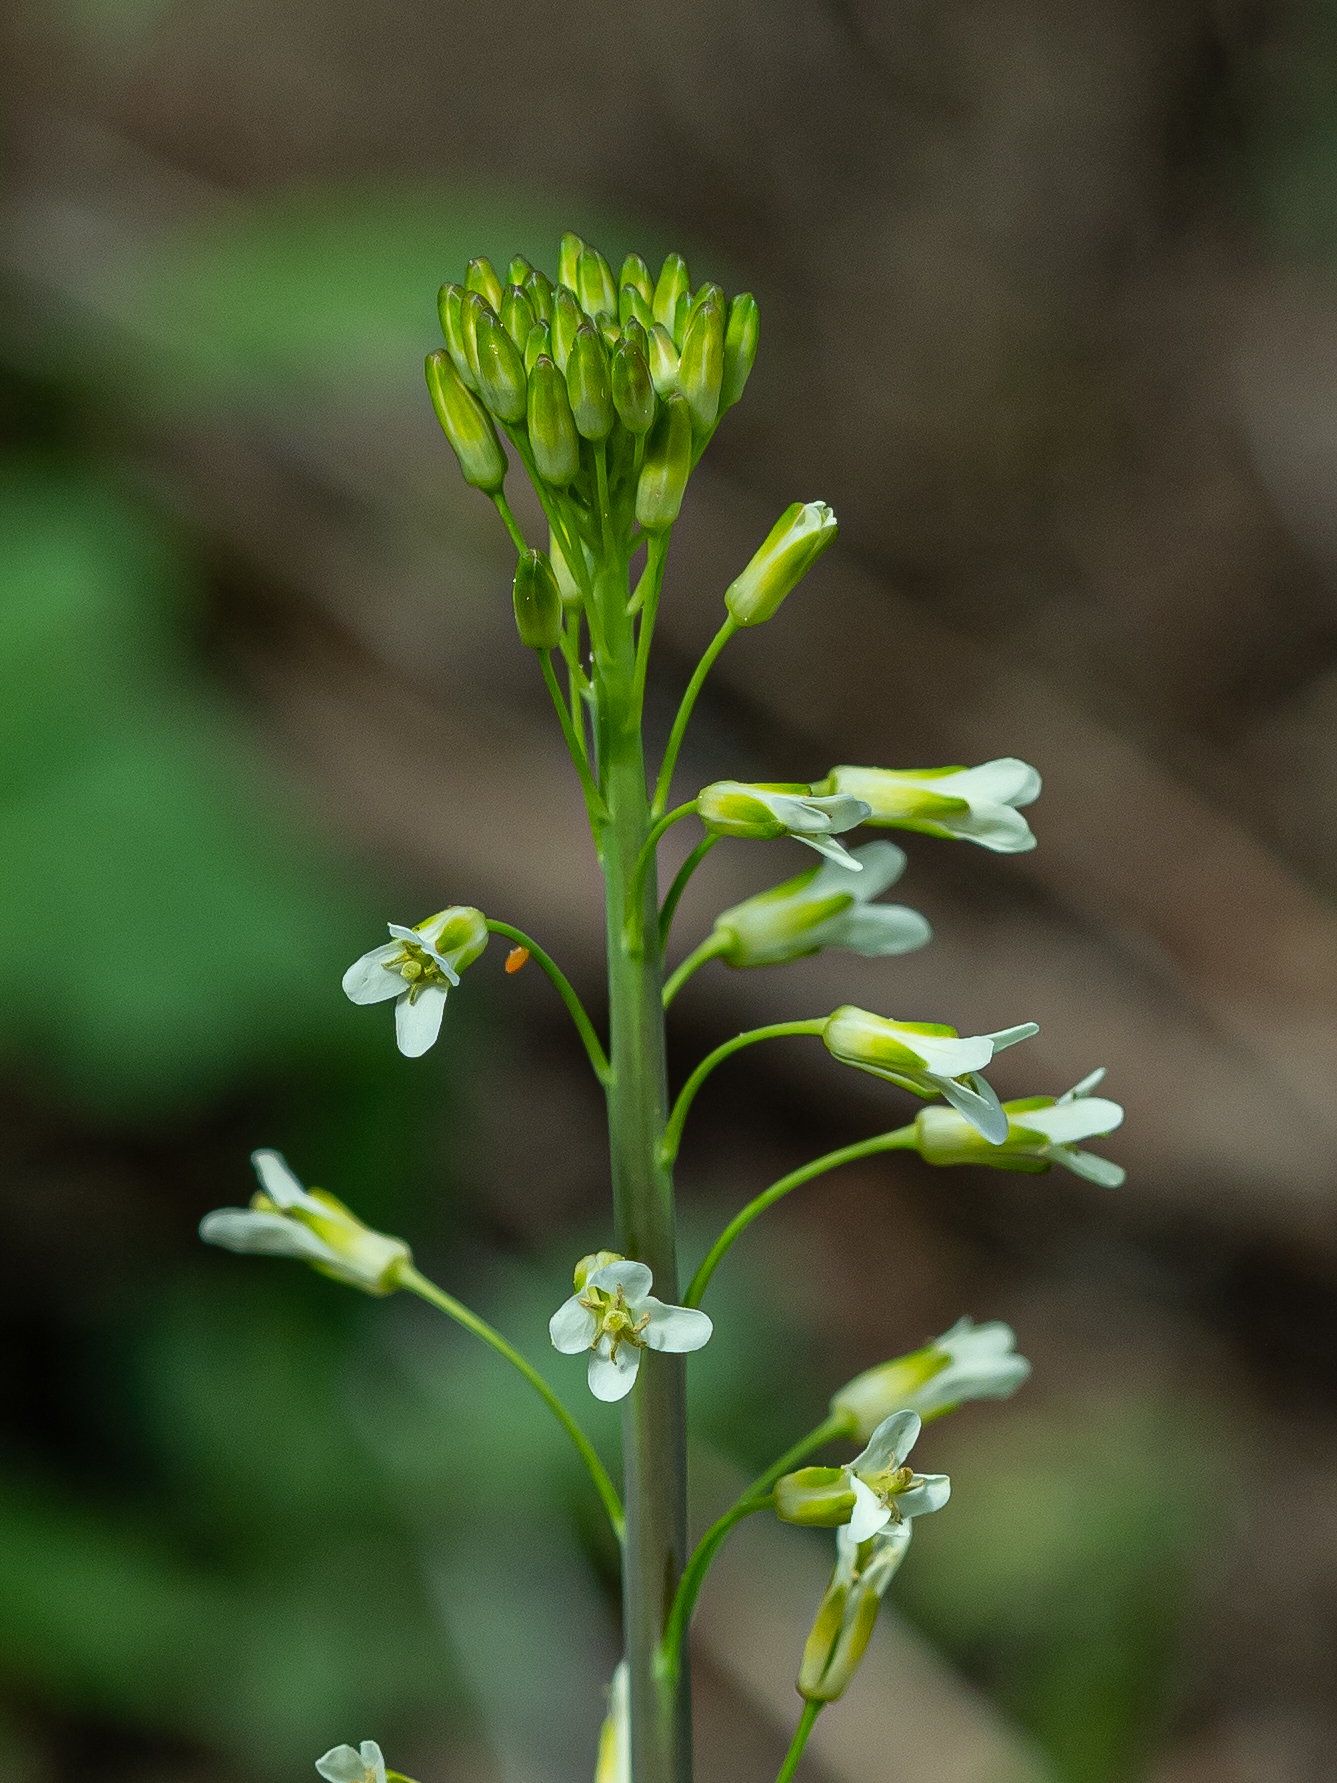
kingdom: Plantae
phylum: Tracheophyta
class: Magnoliopsida
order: Brassicales
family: Brassicaceae
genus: Turritis
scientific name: Turritis glabra
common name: Tower rockcress
